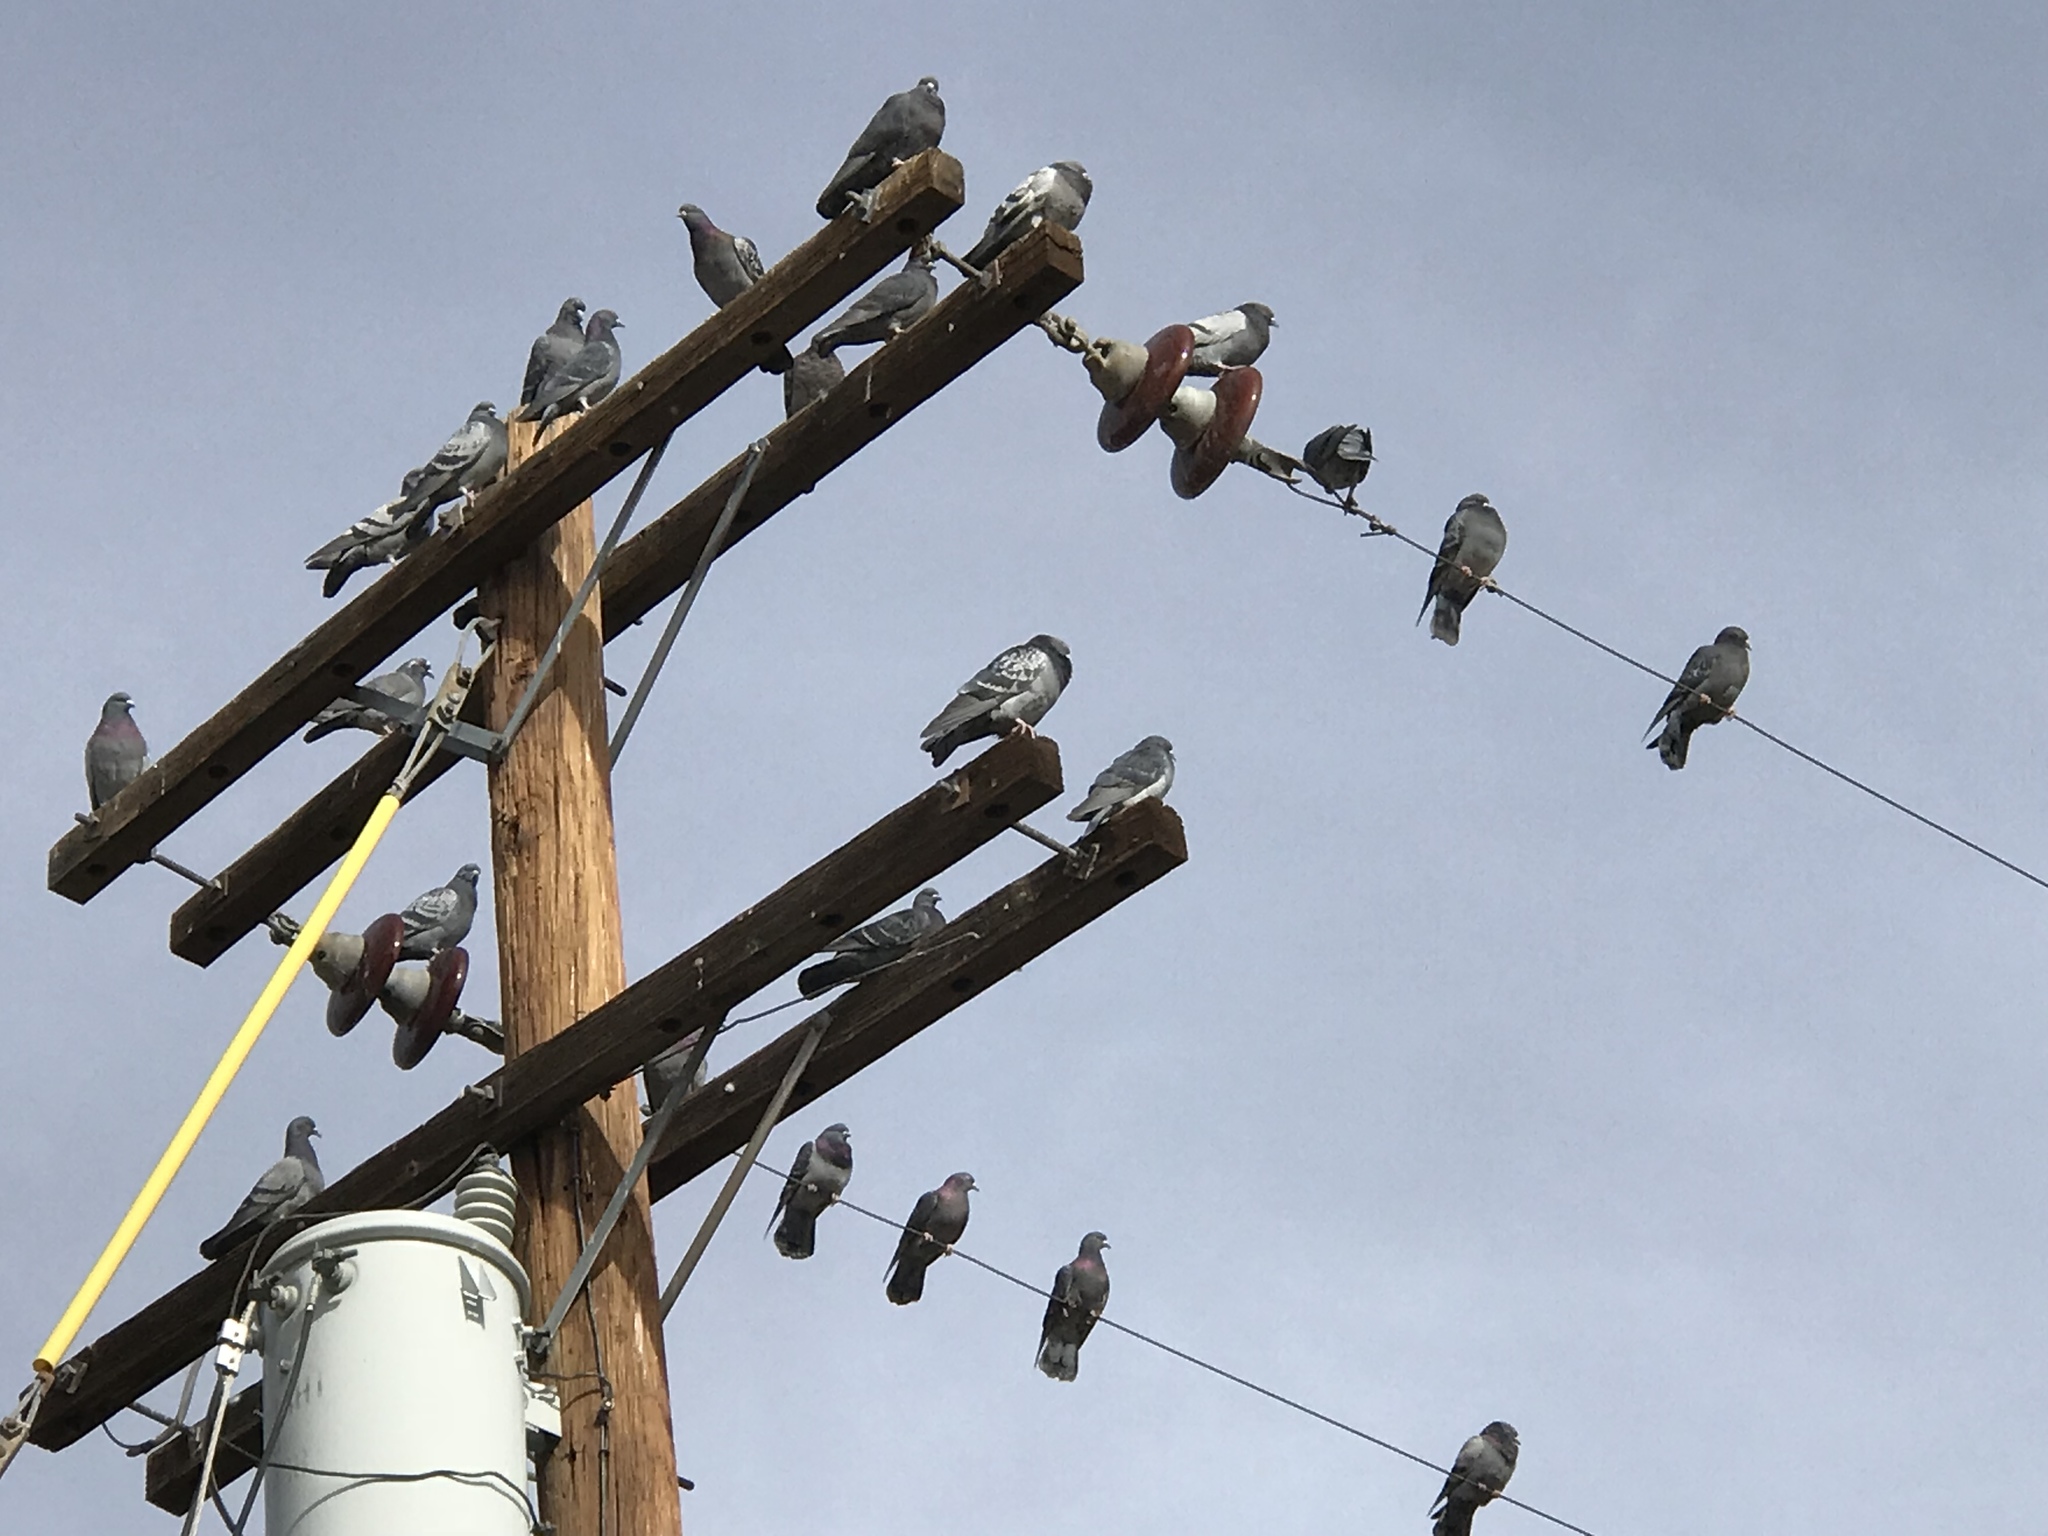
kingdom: Animalia
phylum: Chordata
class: Aves
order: Columbiformes
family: Columbidae
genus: Columba
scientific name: Columba livia
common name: Rock pigeon
